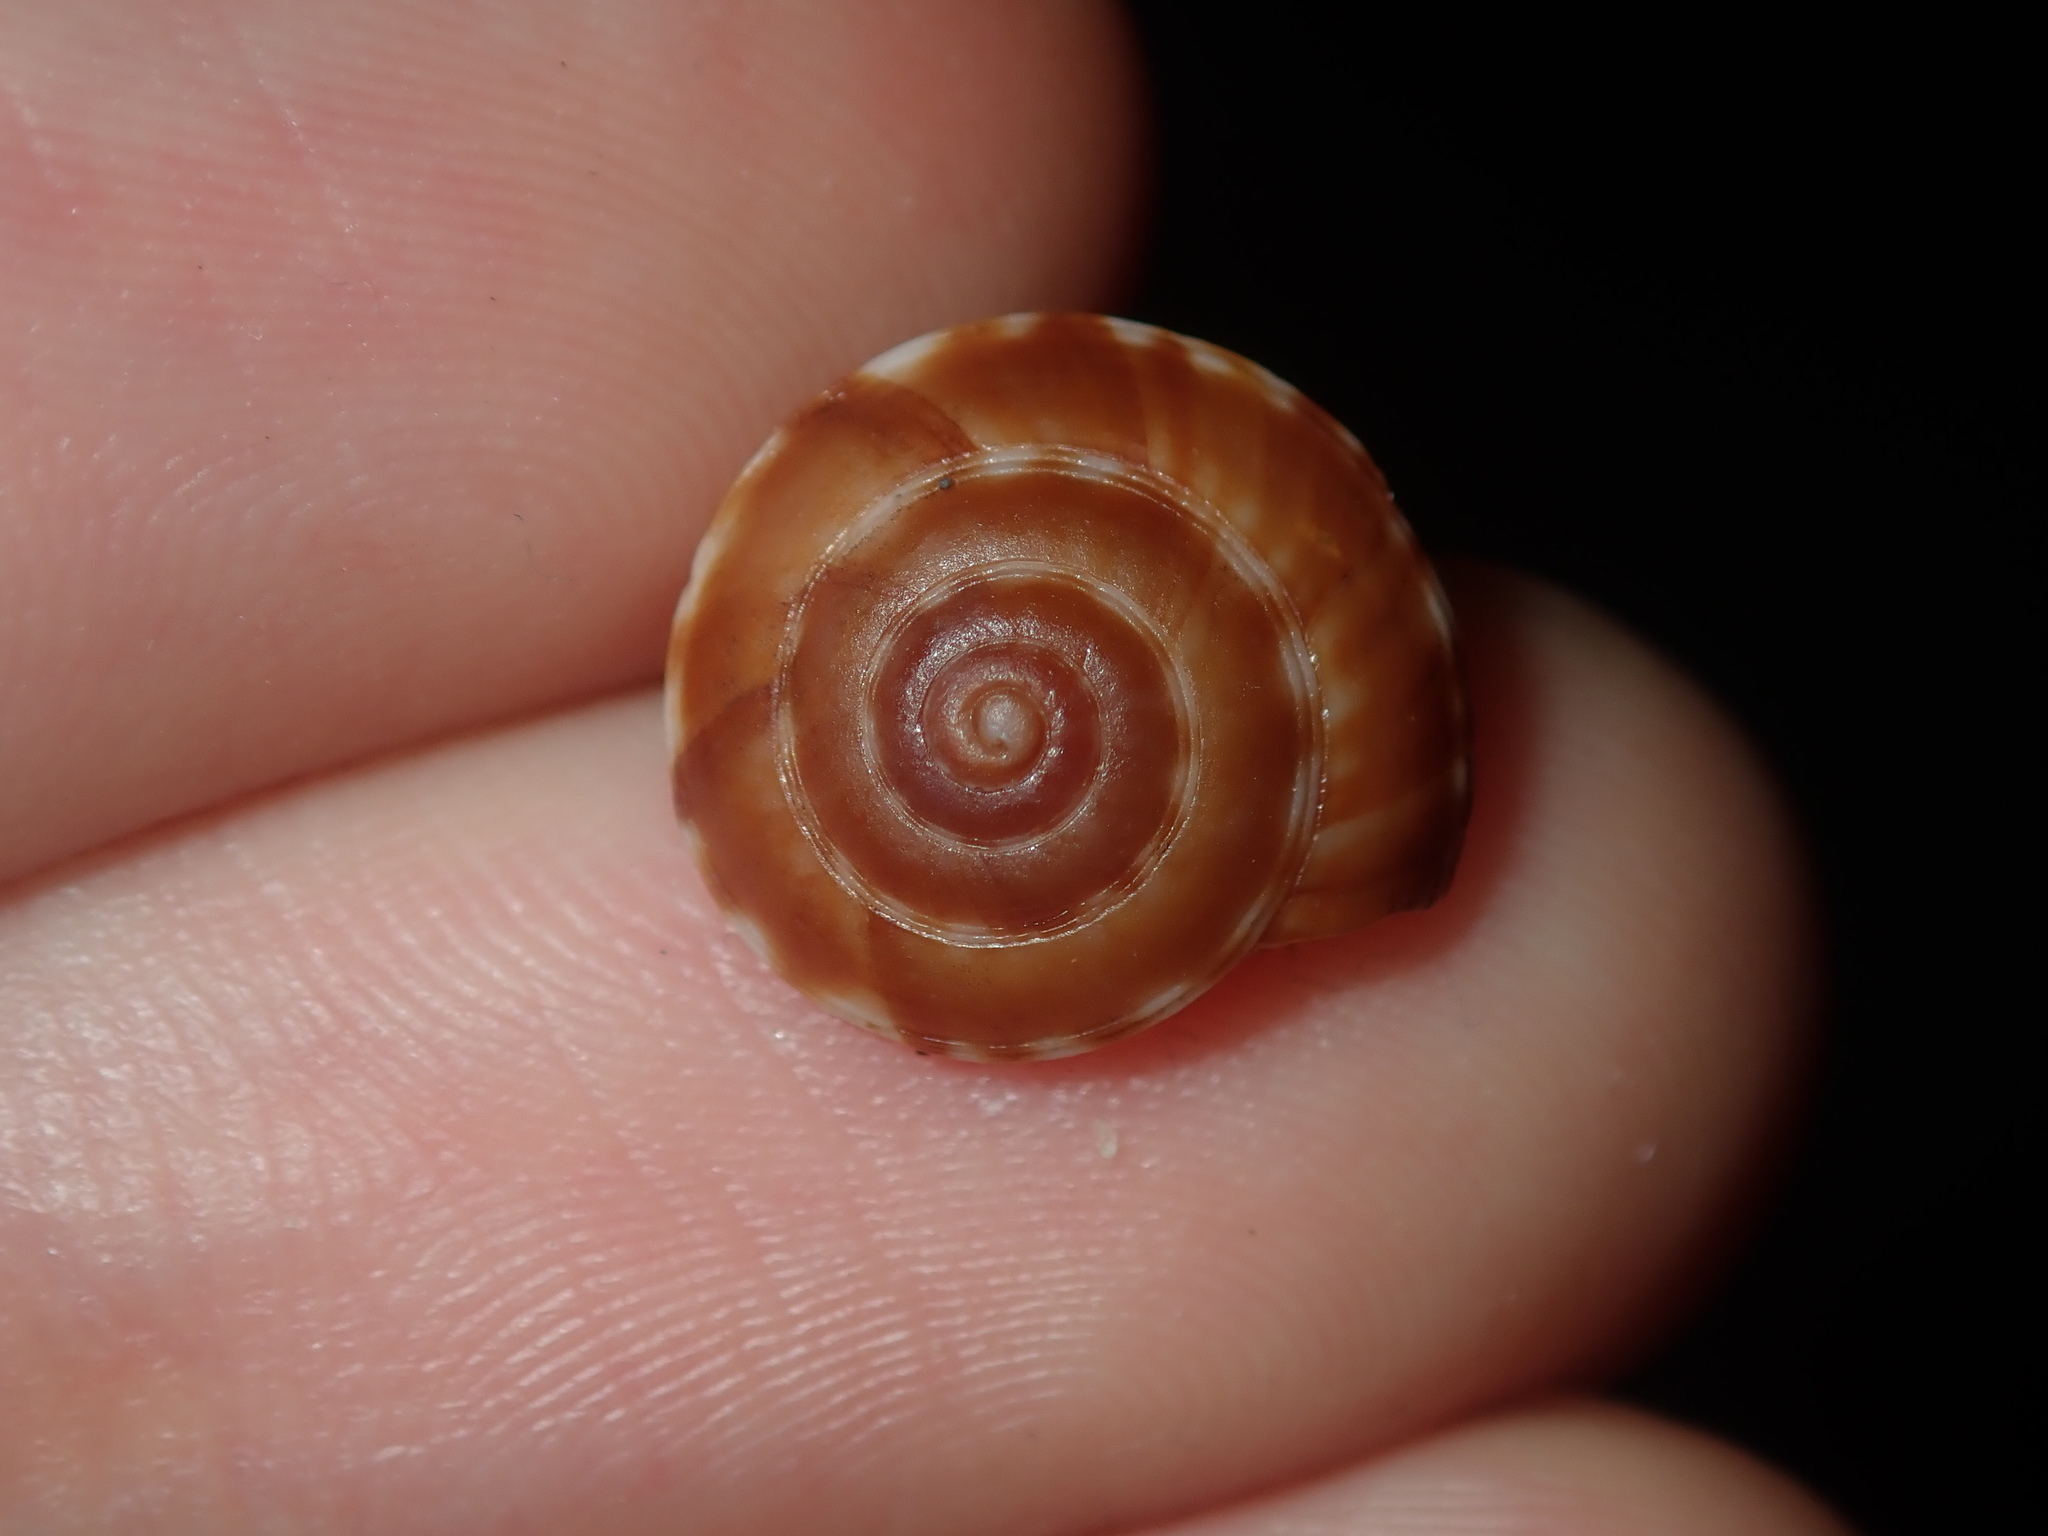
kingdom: Animalia
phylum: Mollusca
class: Gastropoda
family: Architectonicidae
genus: Psilaxis
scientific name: Psilaxis oxytropis
